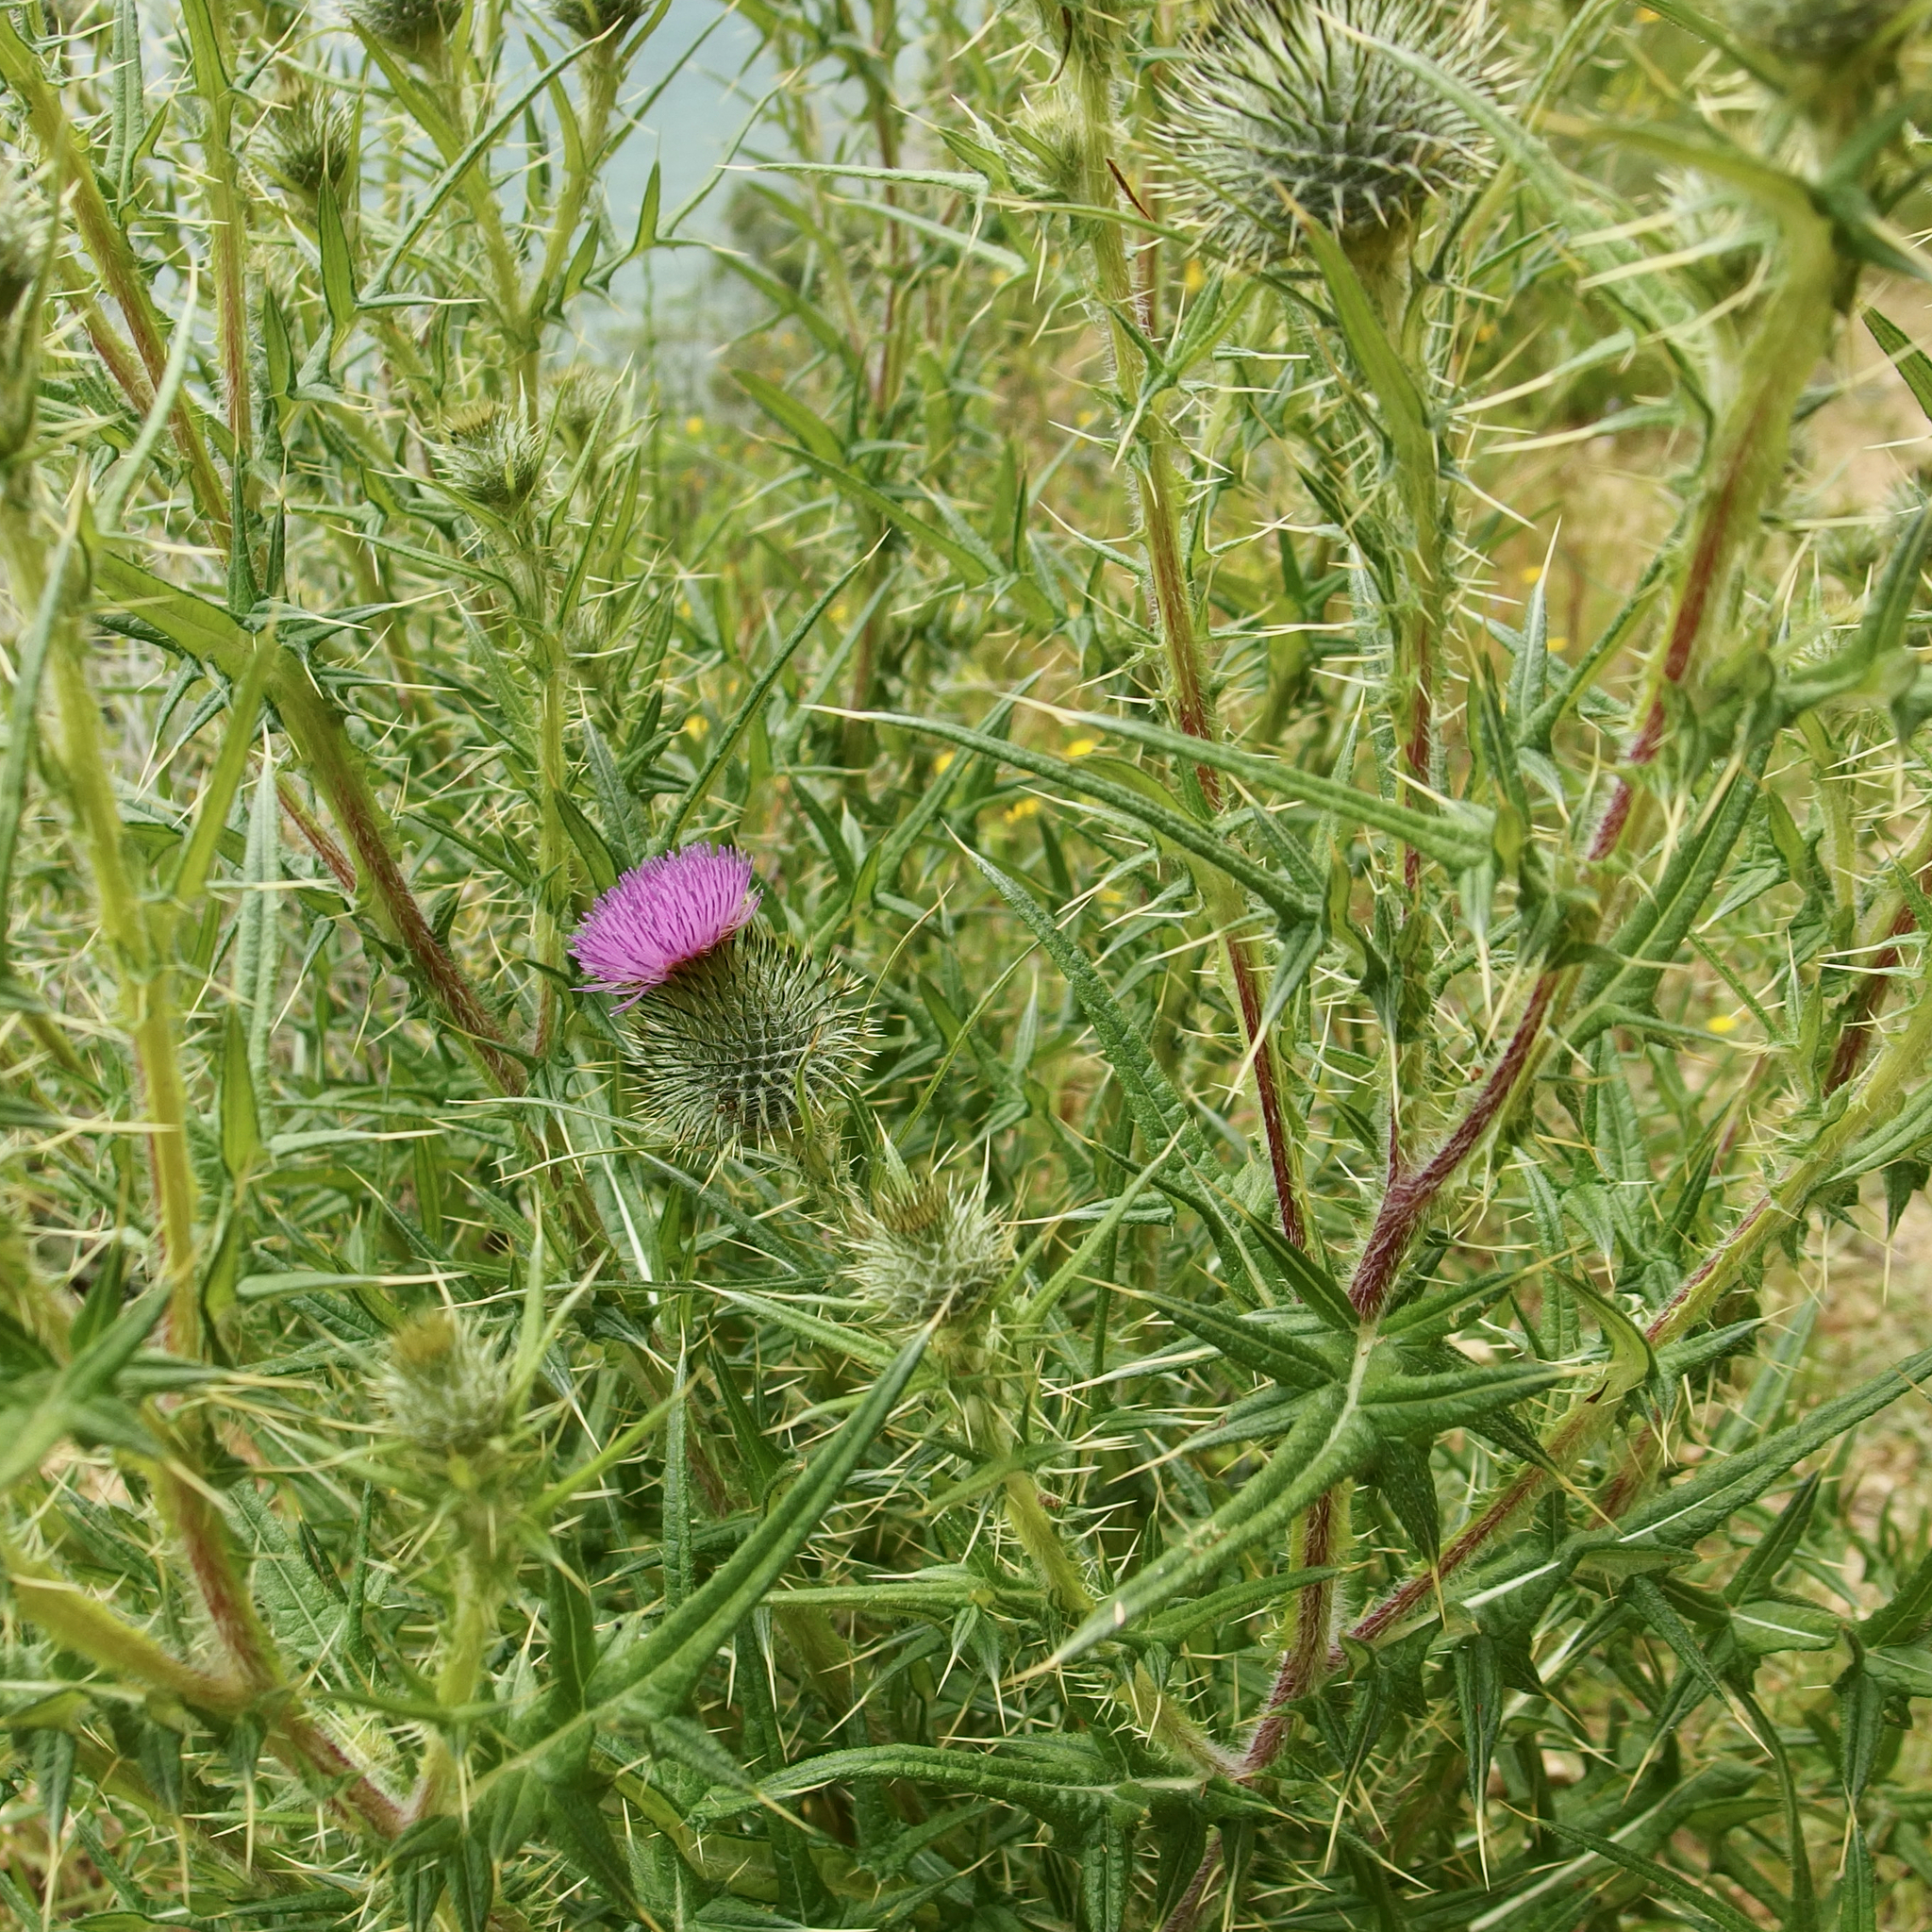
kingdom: Plantae
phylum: Tracheophyta
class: Magnoliopsida
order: Asterales
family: Asteraceae
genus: Cirsium
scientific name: Cirsium vulgare
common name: Bull thistle
